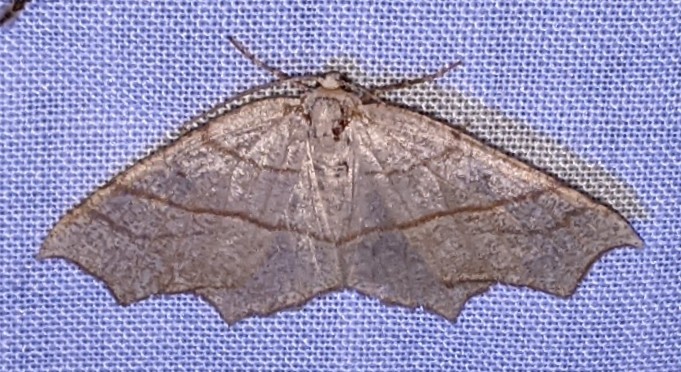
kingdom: Animalia
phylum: Arthropoda
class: Insecta
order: Lepidoptera
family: Geometridae
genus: Besma
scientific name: Besma quercivoraria
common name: Oak besma
